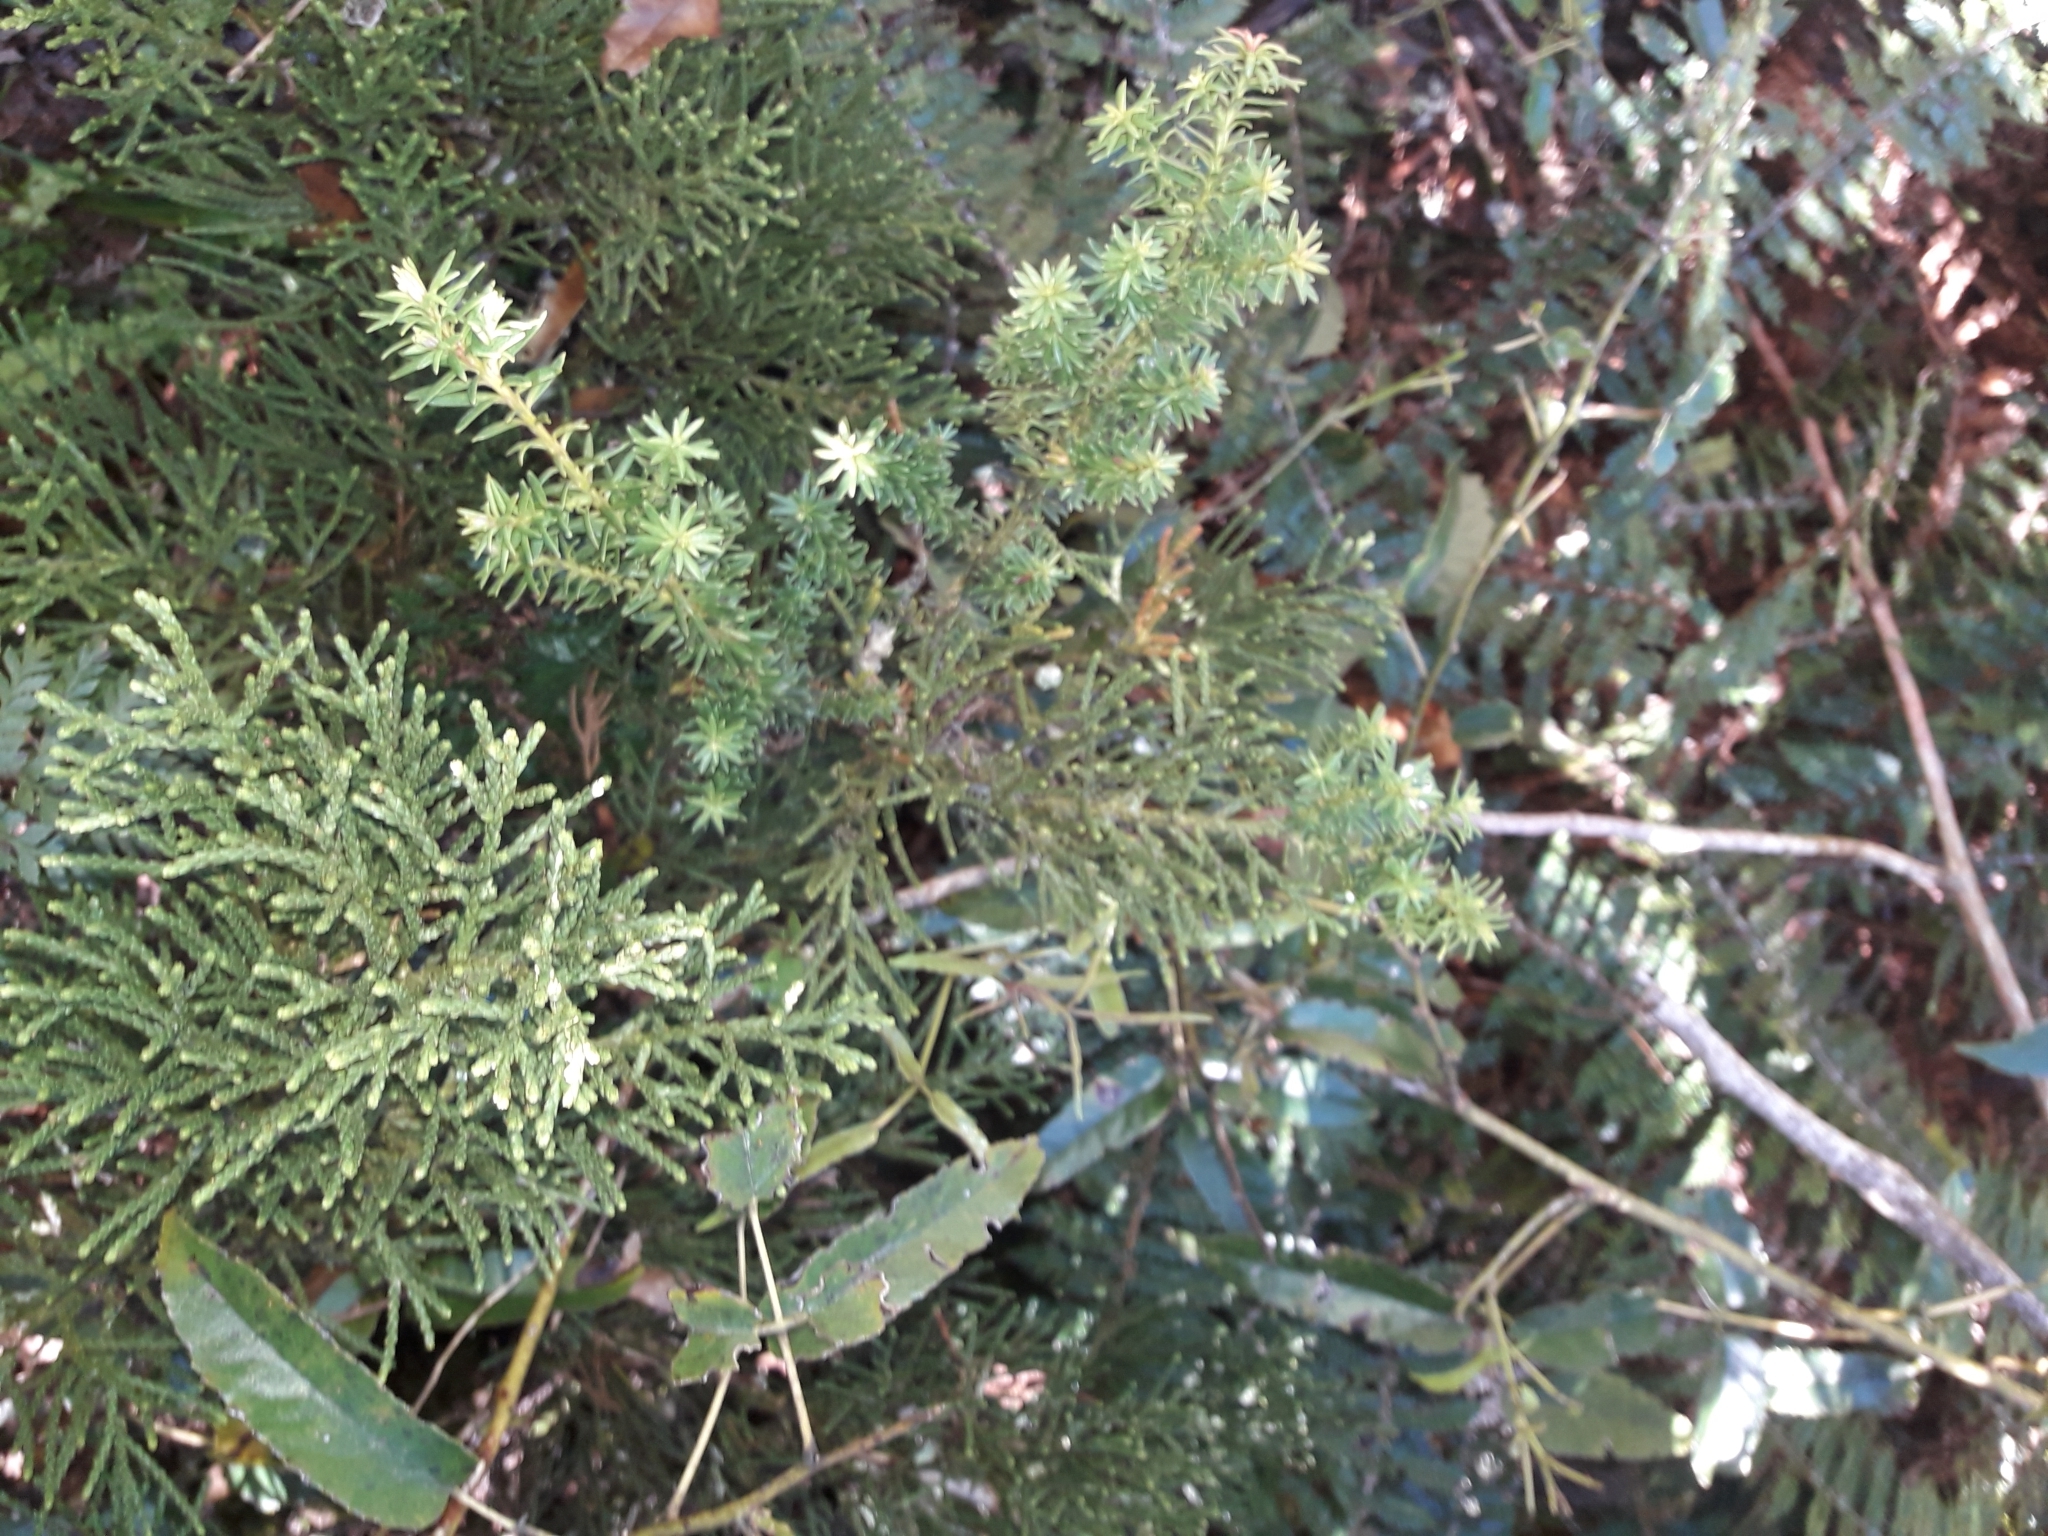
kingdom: Plantae
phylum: Tracheophyta
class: Pinopsida
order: Pinales
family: Podocarpaceae
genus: Halocarpus
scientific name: Halocarpus biformis
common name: Alpine tarwood
